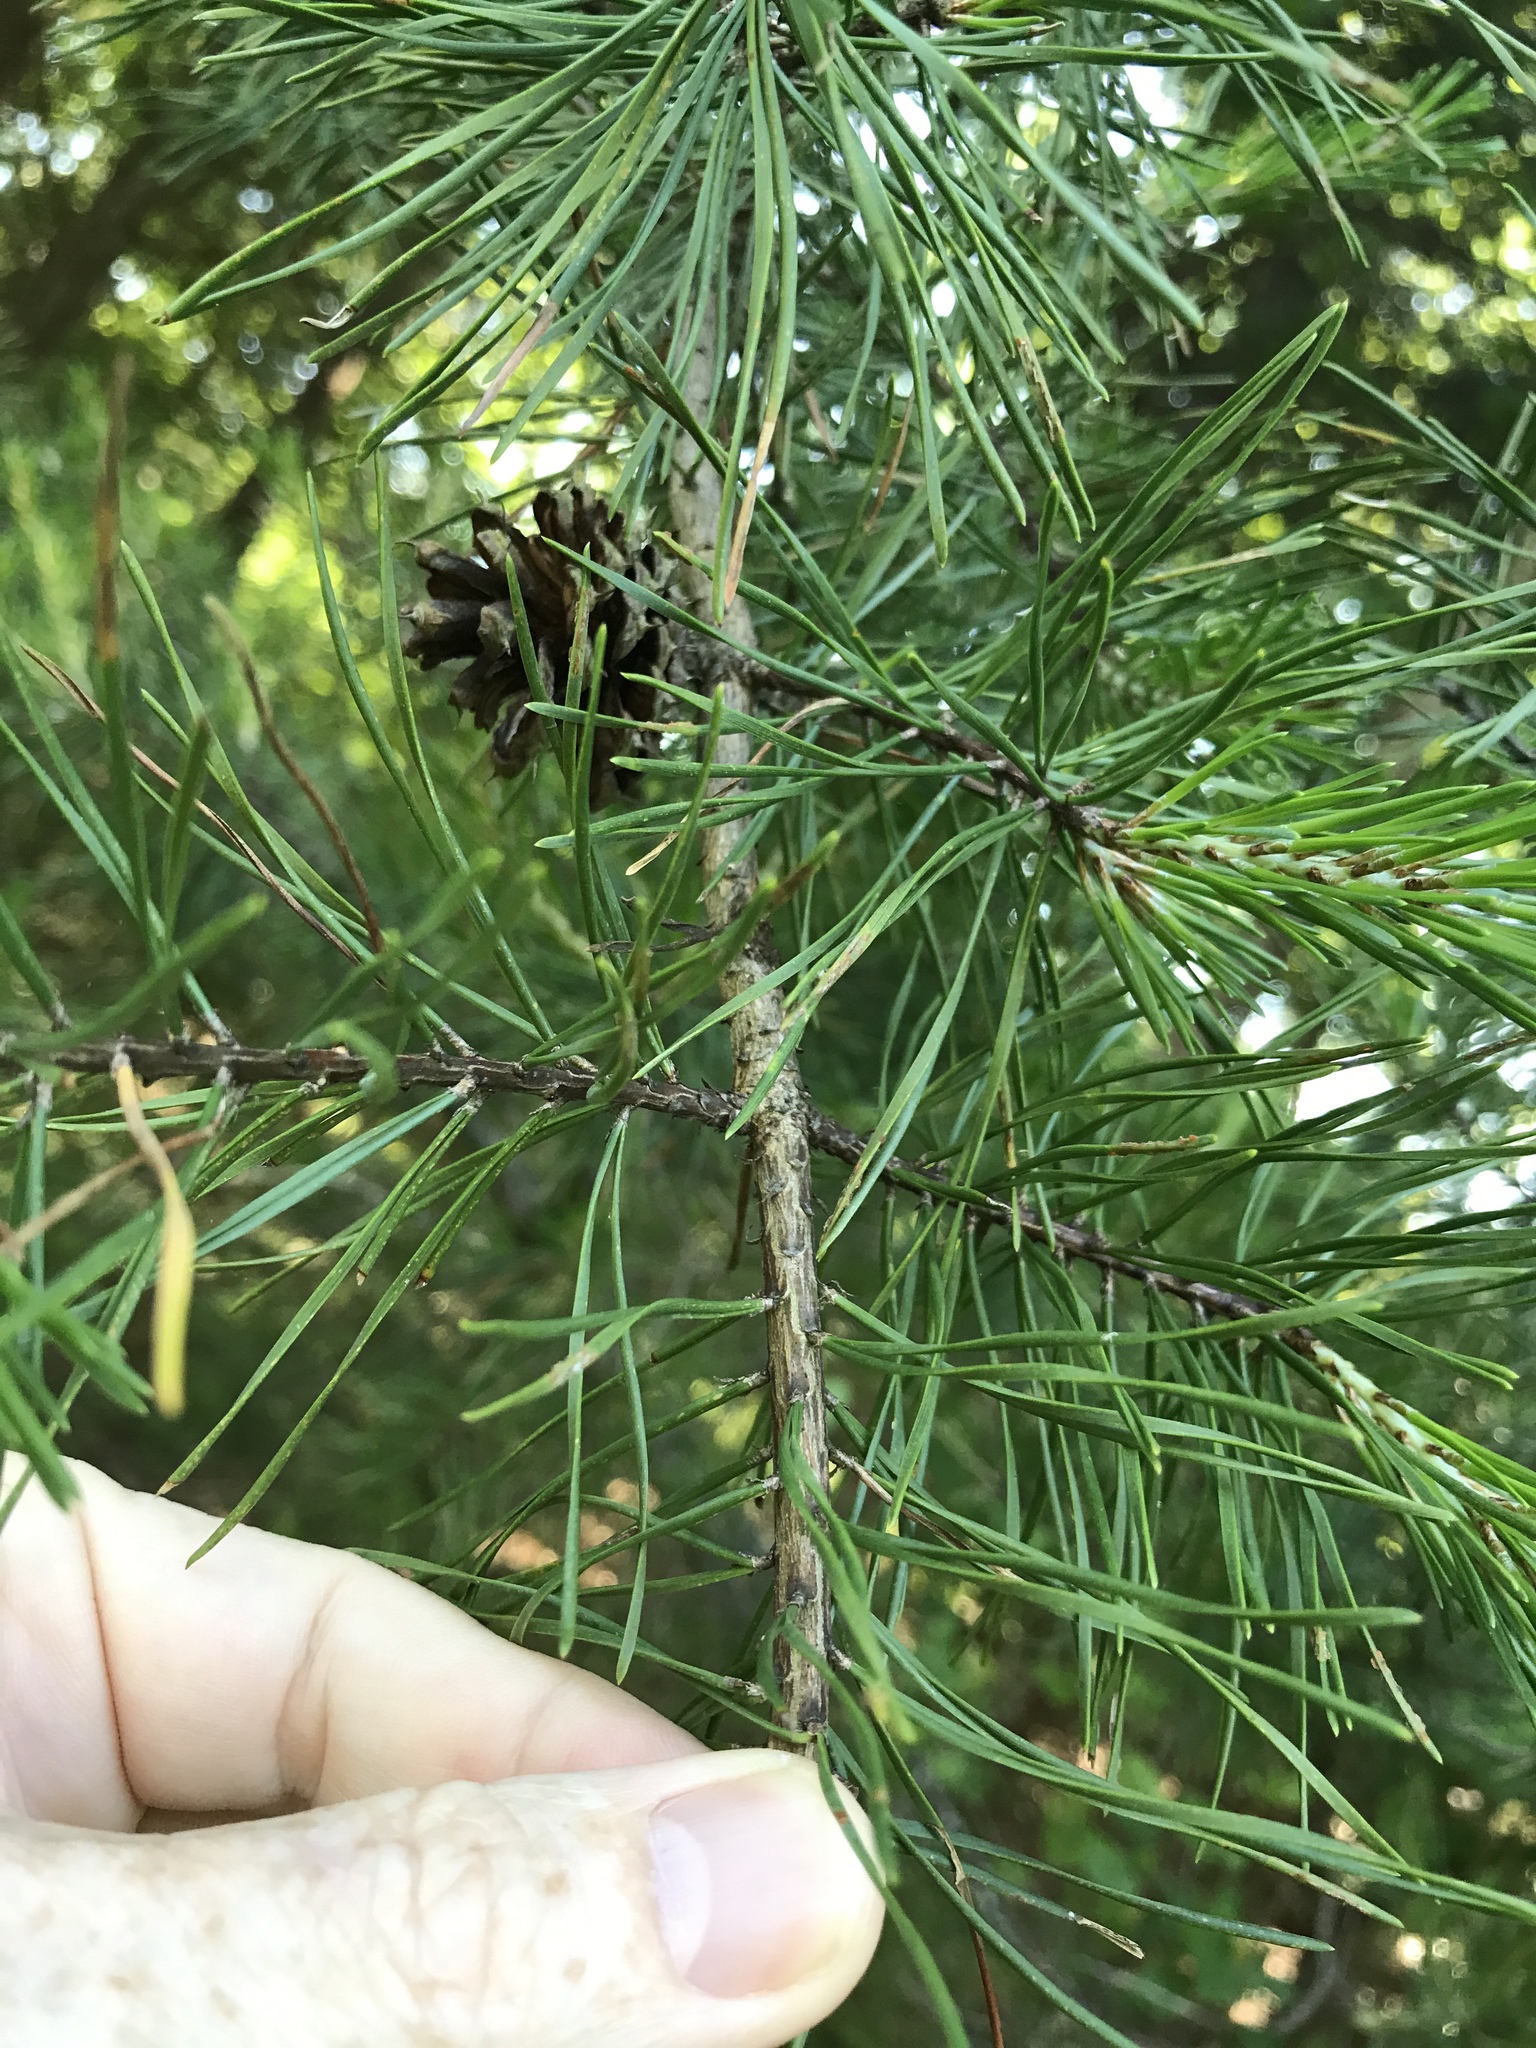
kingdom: Plantae
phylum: Tracheophyta
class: Pinopsida
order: Pinales
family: Pinaceae
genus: Pinus
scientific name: Pinus virginiana
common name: Scrub pine
